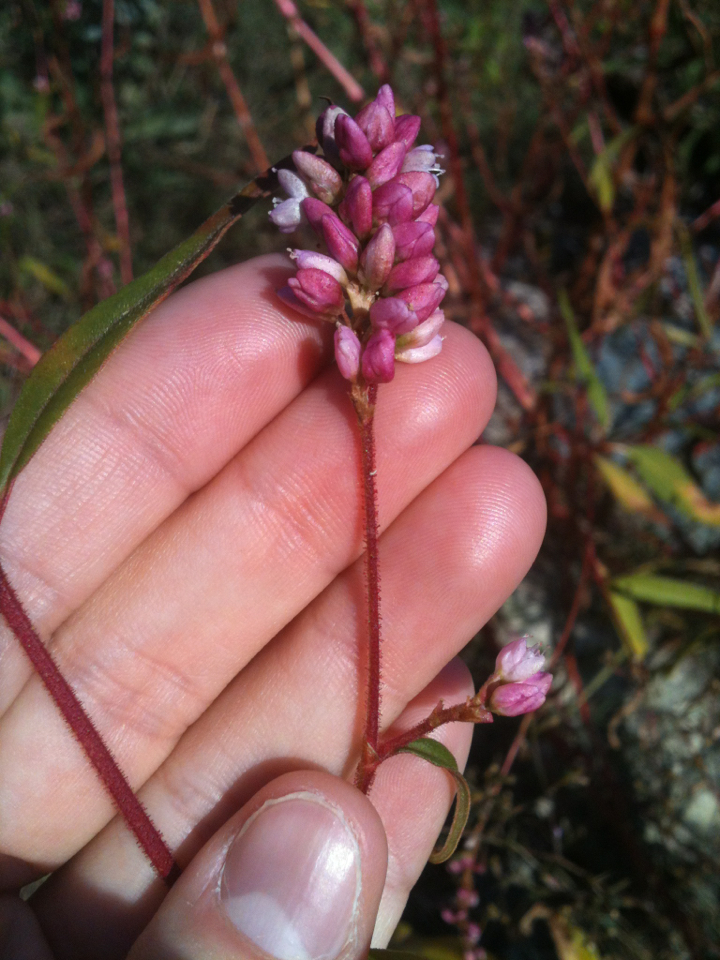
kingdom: Plantae
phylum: Tracheophyta
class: Magnoliopsida
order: Caryophyllales
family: Polygonaceae
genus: Persicaria
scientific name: Persicaria pensylvanica
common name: Pinkweed
